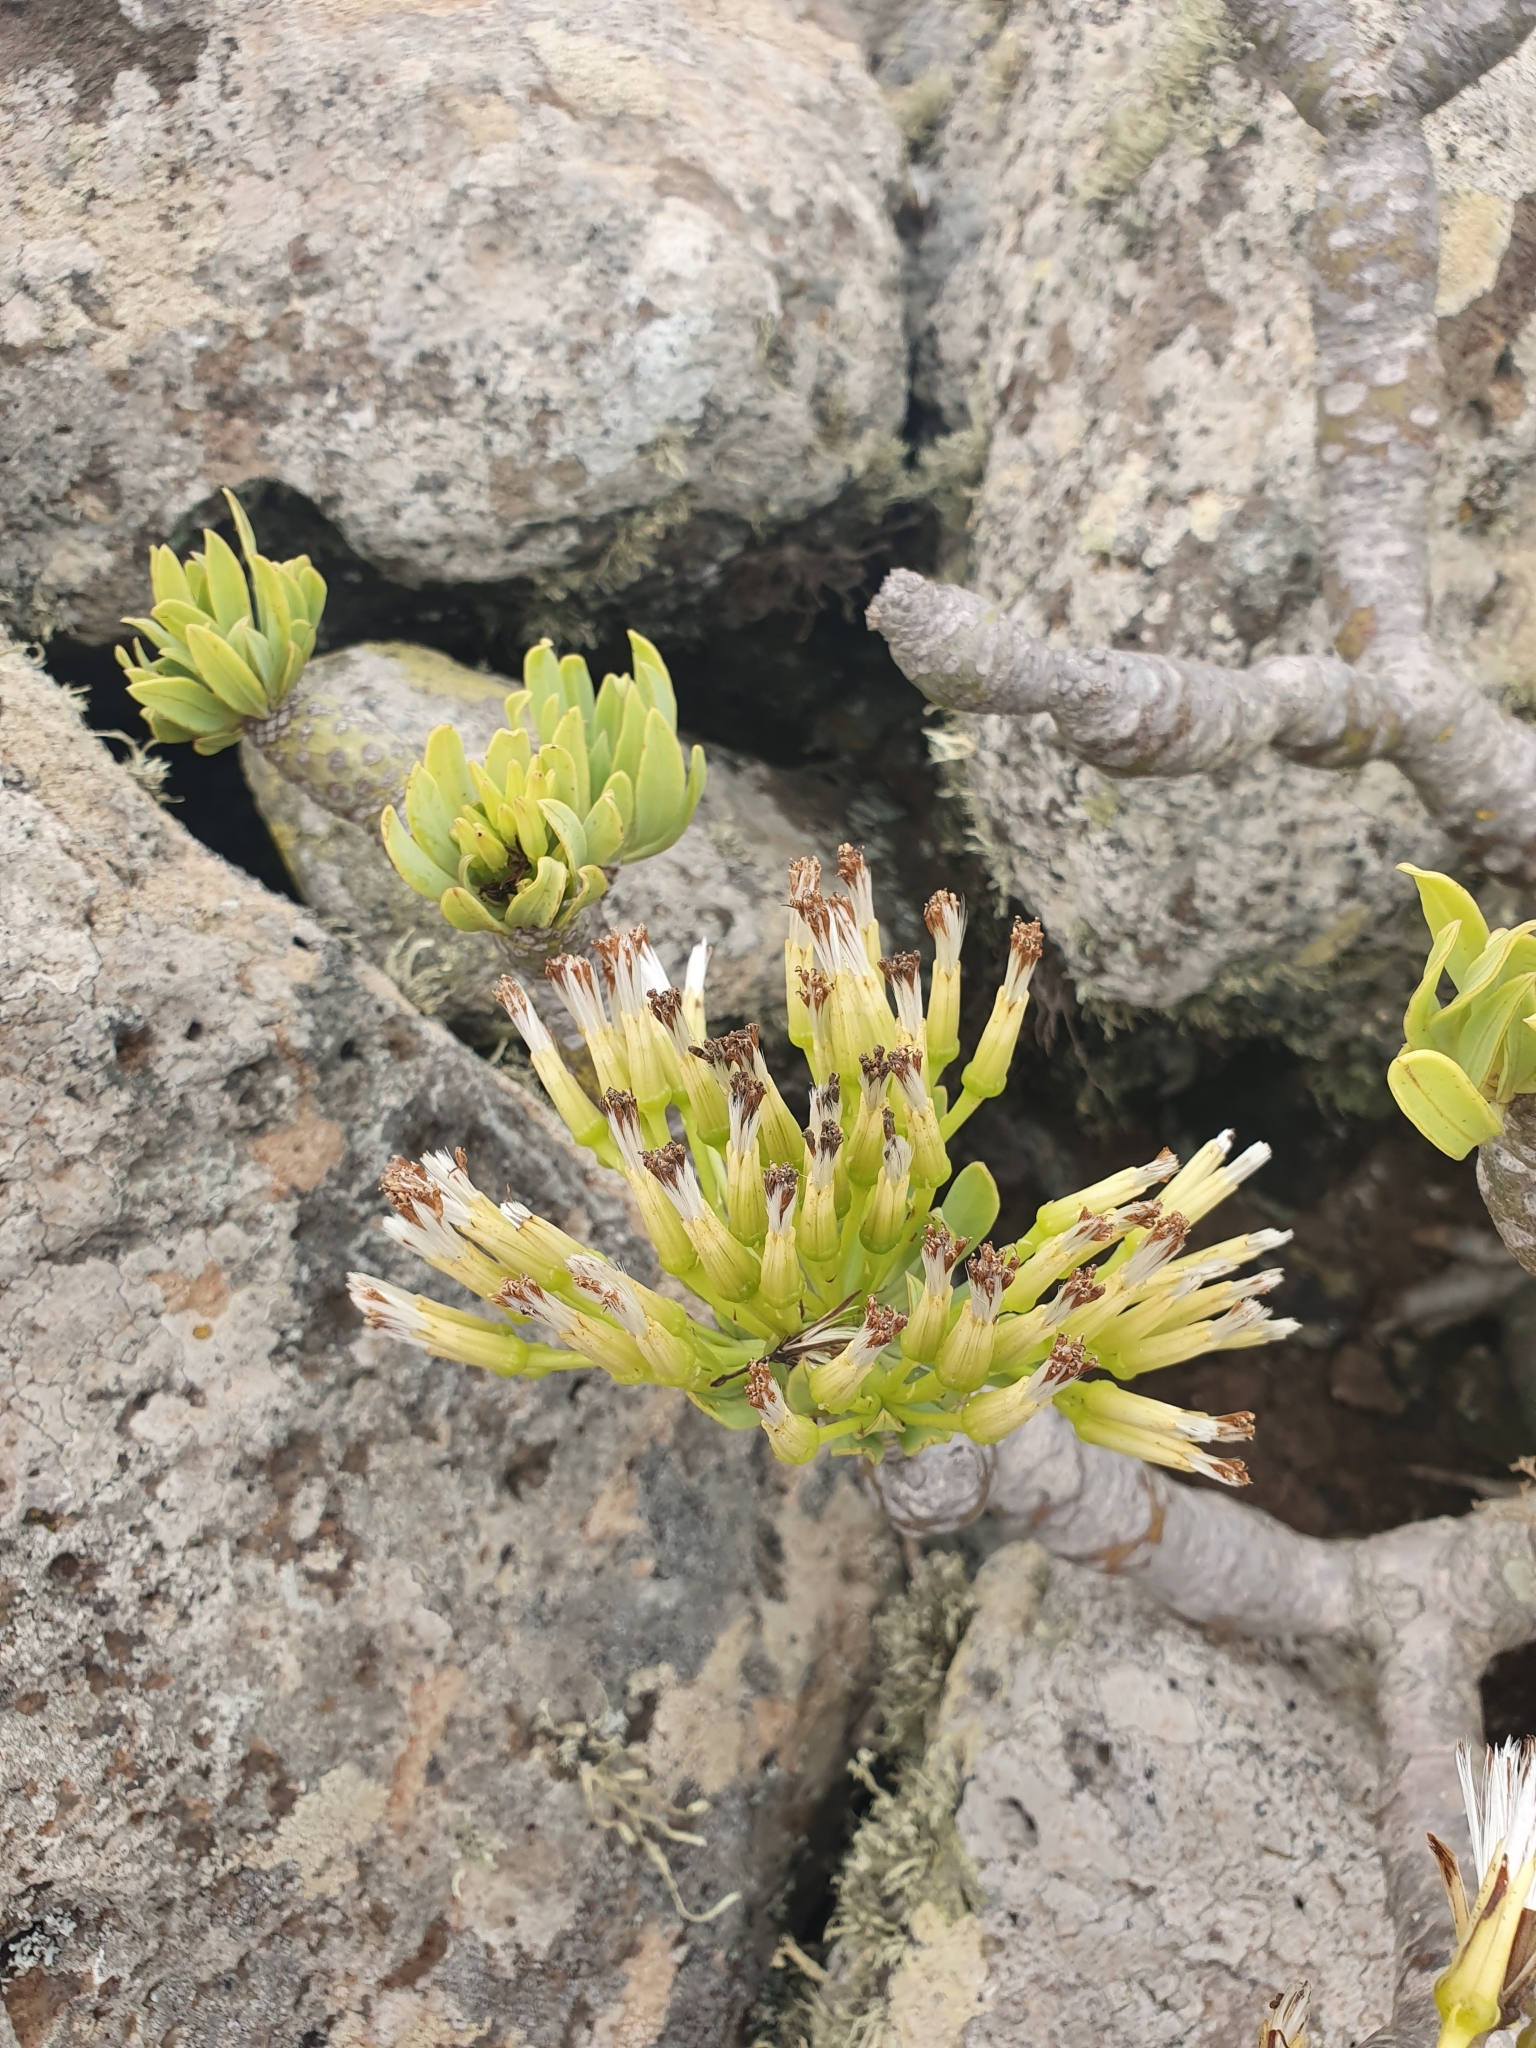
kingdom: Plantae
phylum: Tracheophyta
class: Magnoliopsida
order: Asterales
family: Asteraceae
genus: Kleinia
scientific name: Kleinia neriifolia
